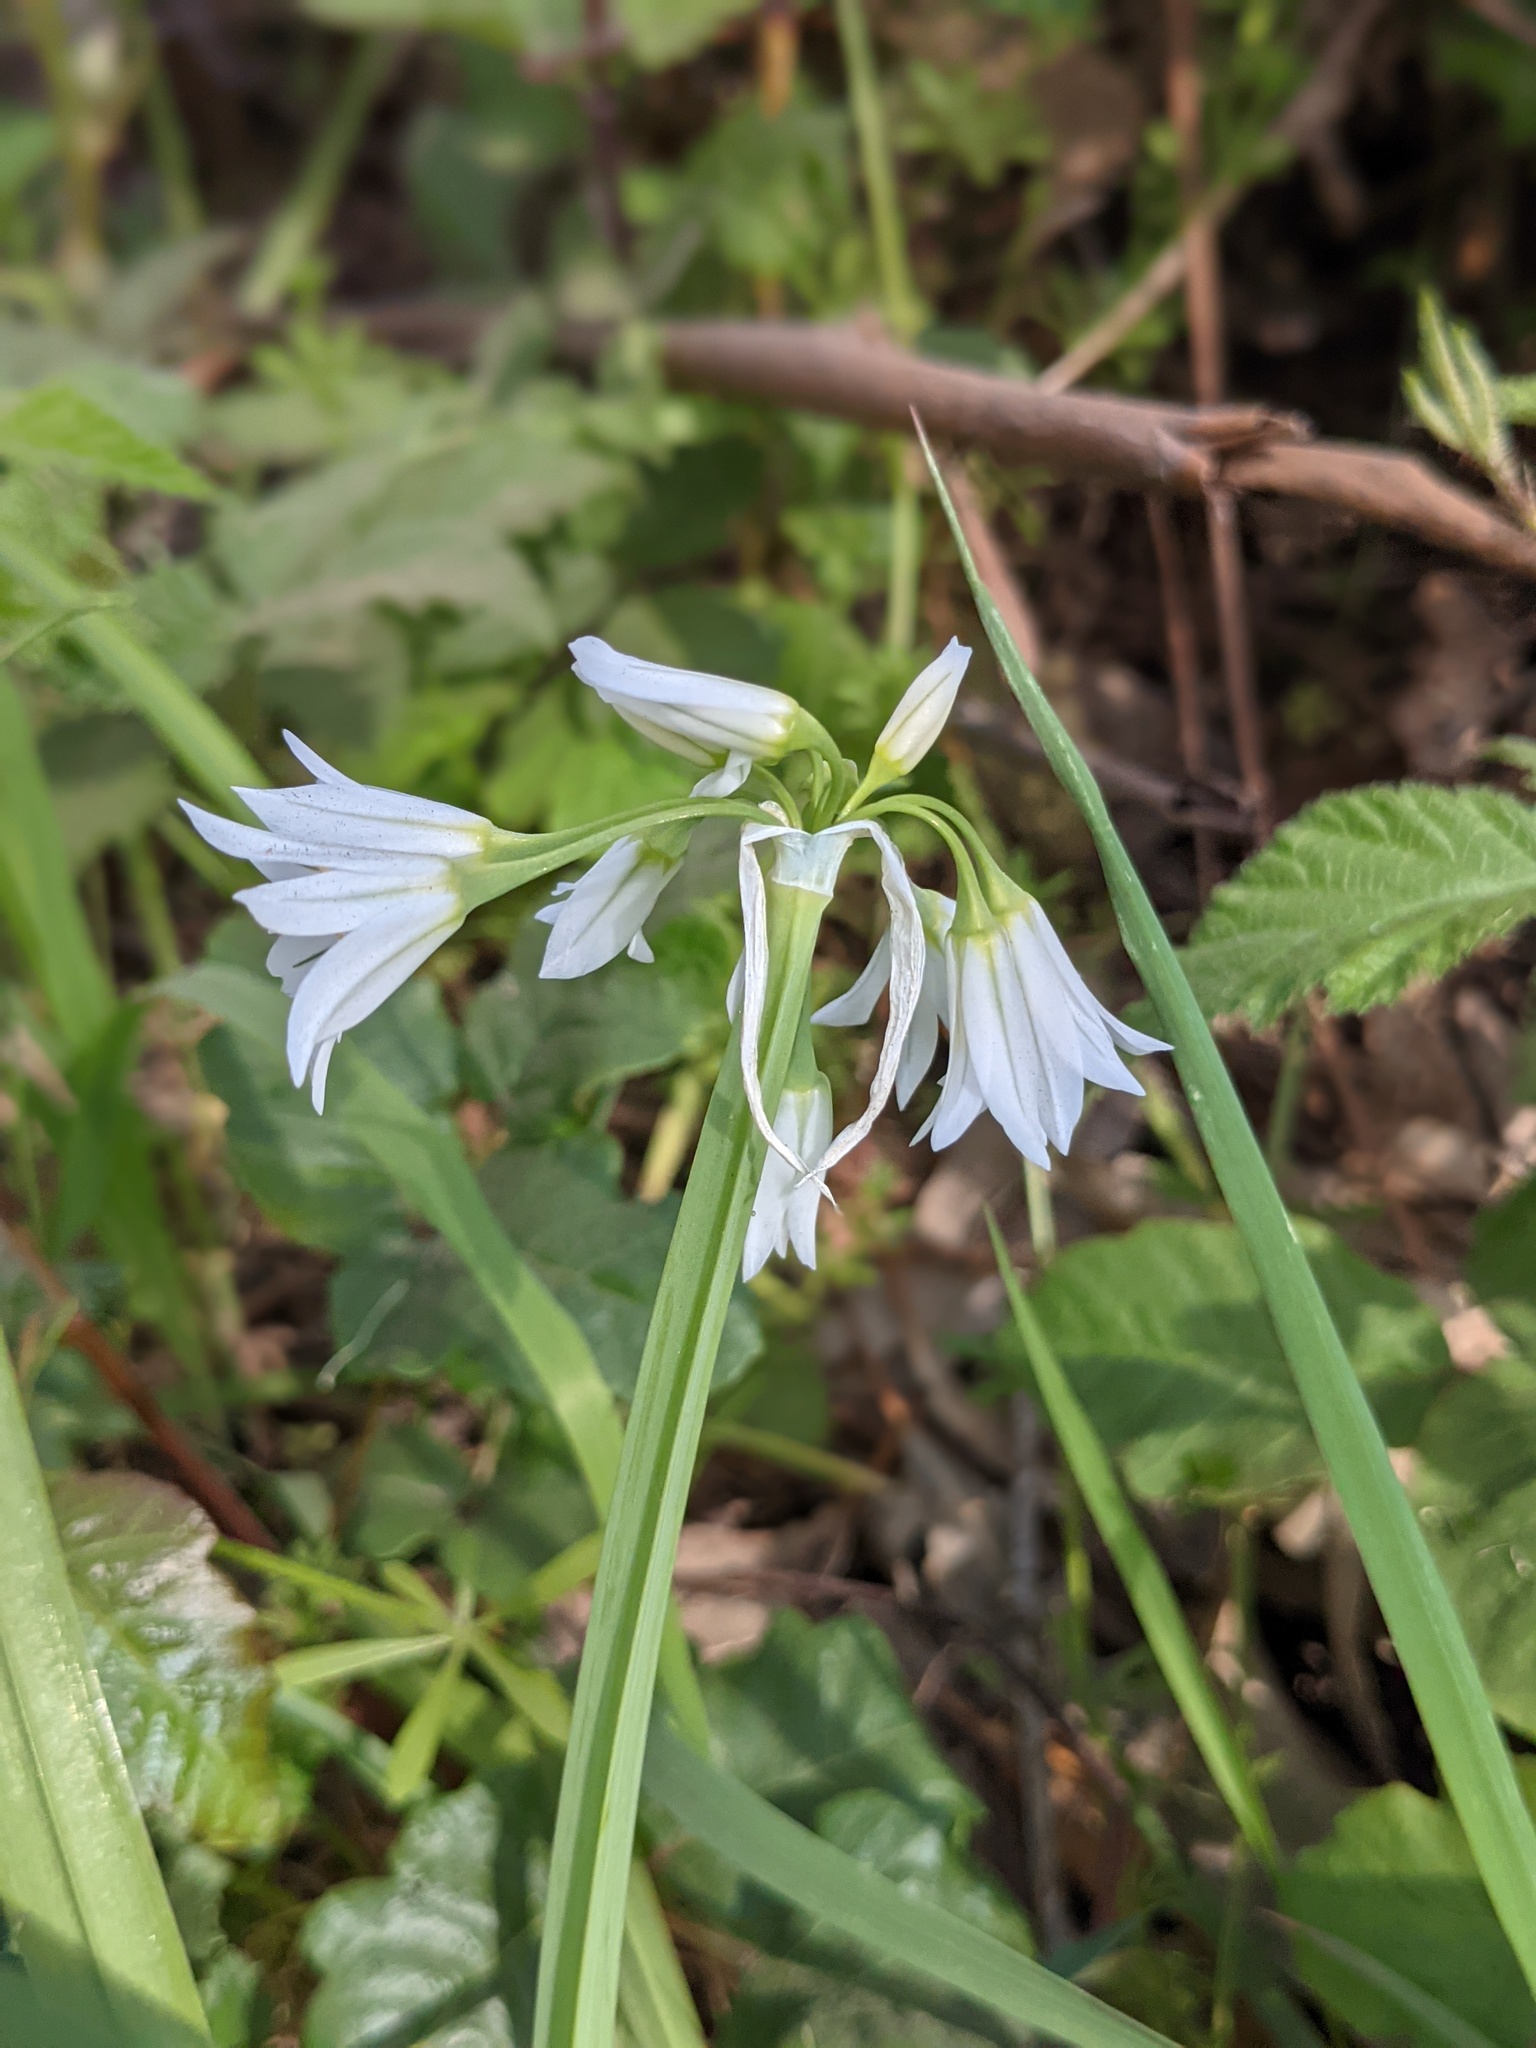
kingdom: Plantae
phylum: Tracheophyta
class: Liliopsida
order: Asparagales
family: Amaryllidaceae
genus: Allium
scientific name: Allium triquetrum
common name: Three-cornered garlic
